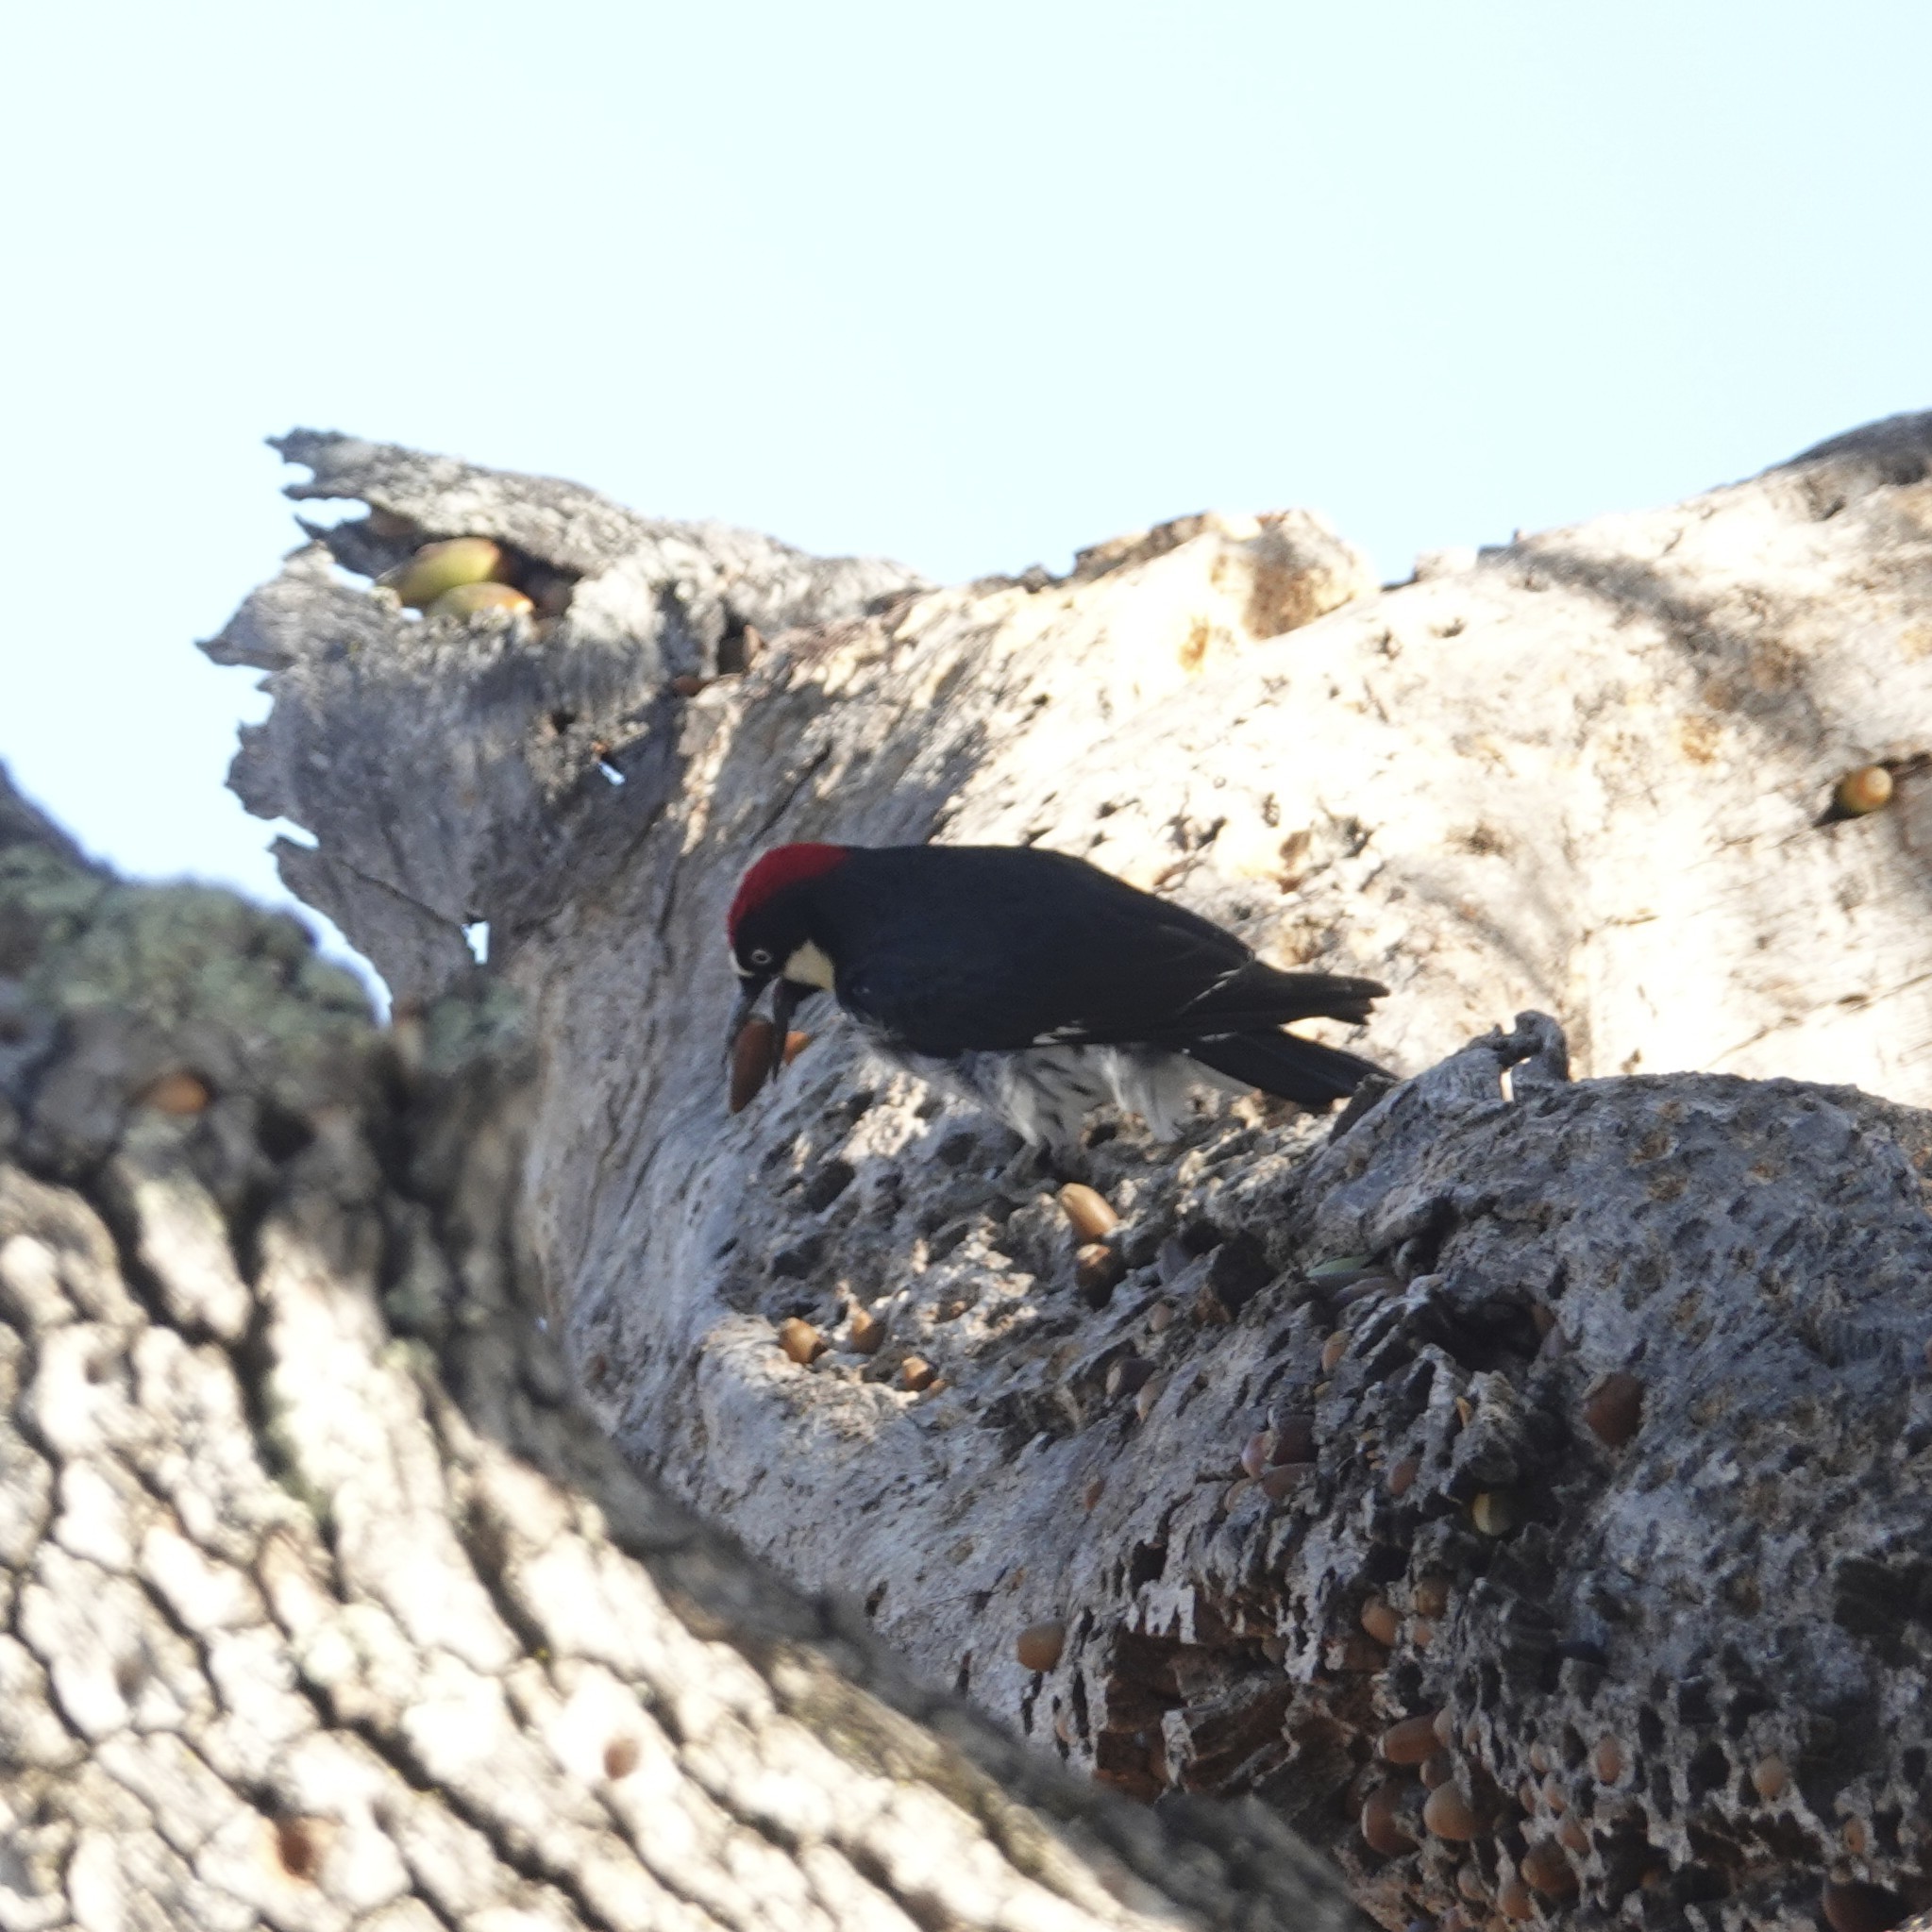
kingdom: Animalia
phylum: Chordata
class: Aves
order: Piciformes
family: Picidae
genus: Melanerpes
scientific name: Melanerpes formicivorus
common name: Acorn woodpecker
